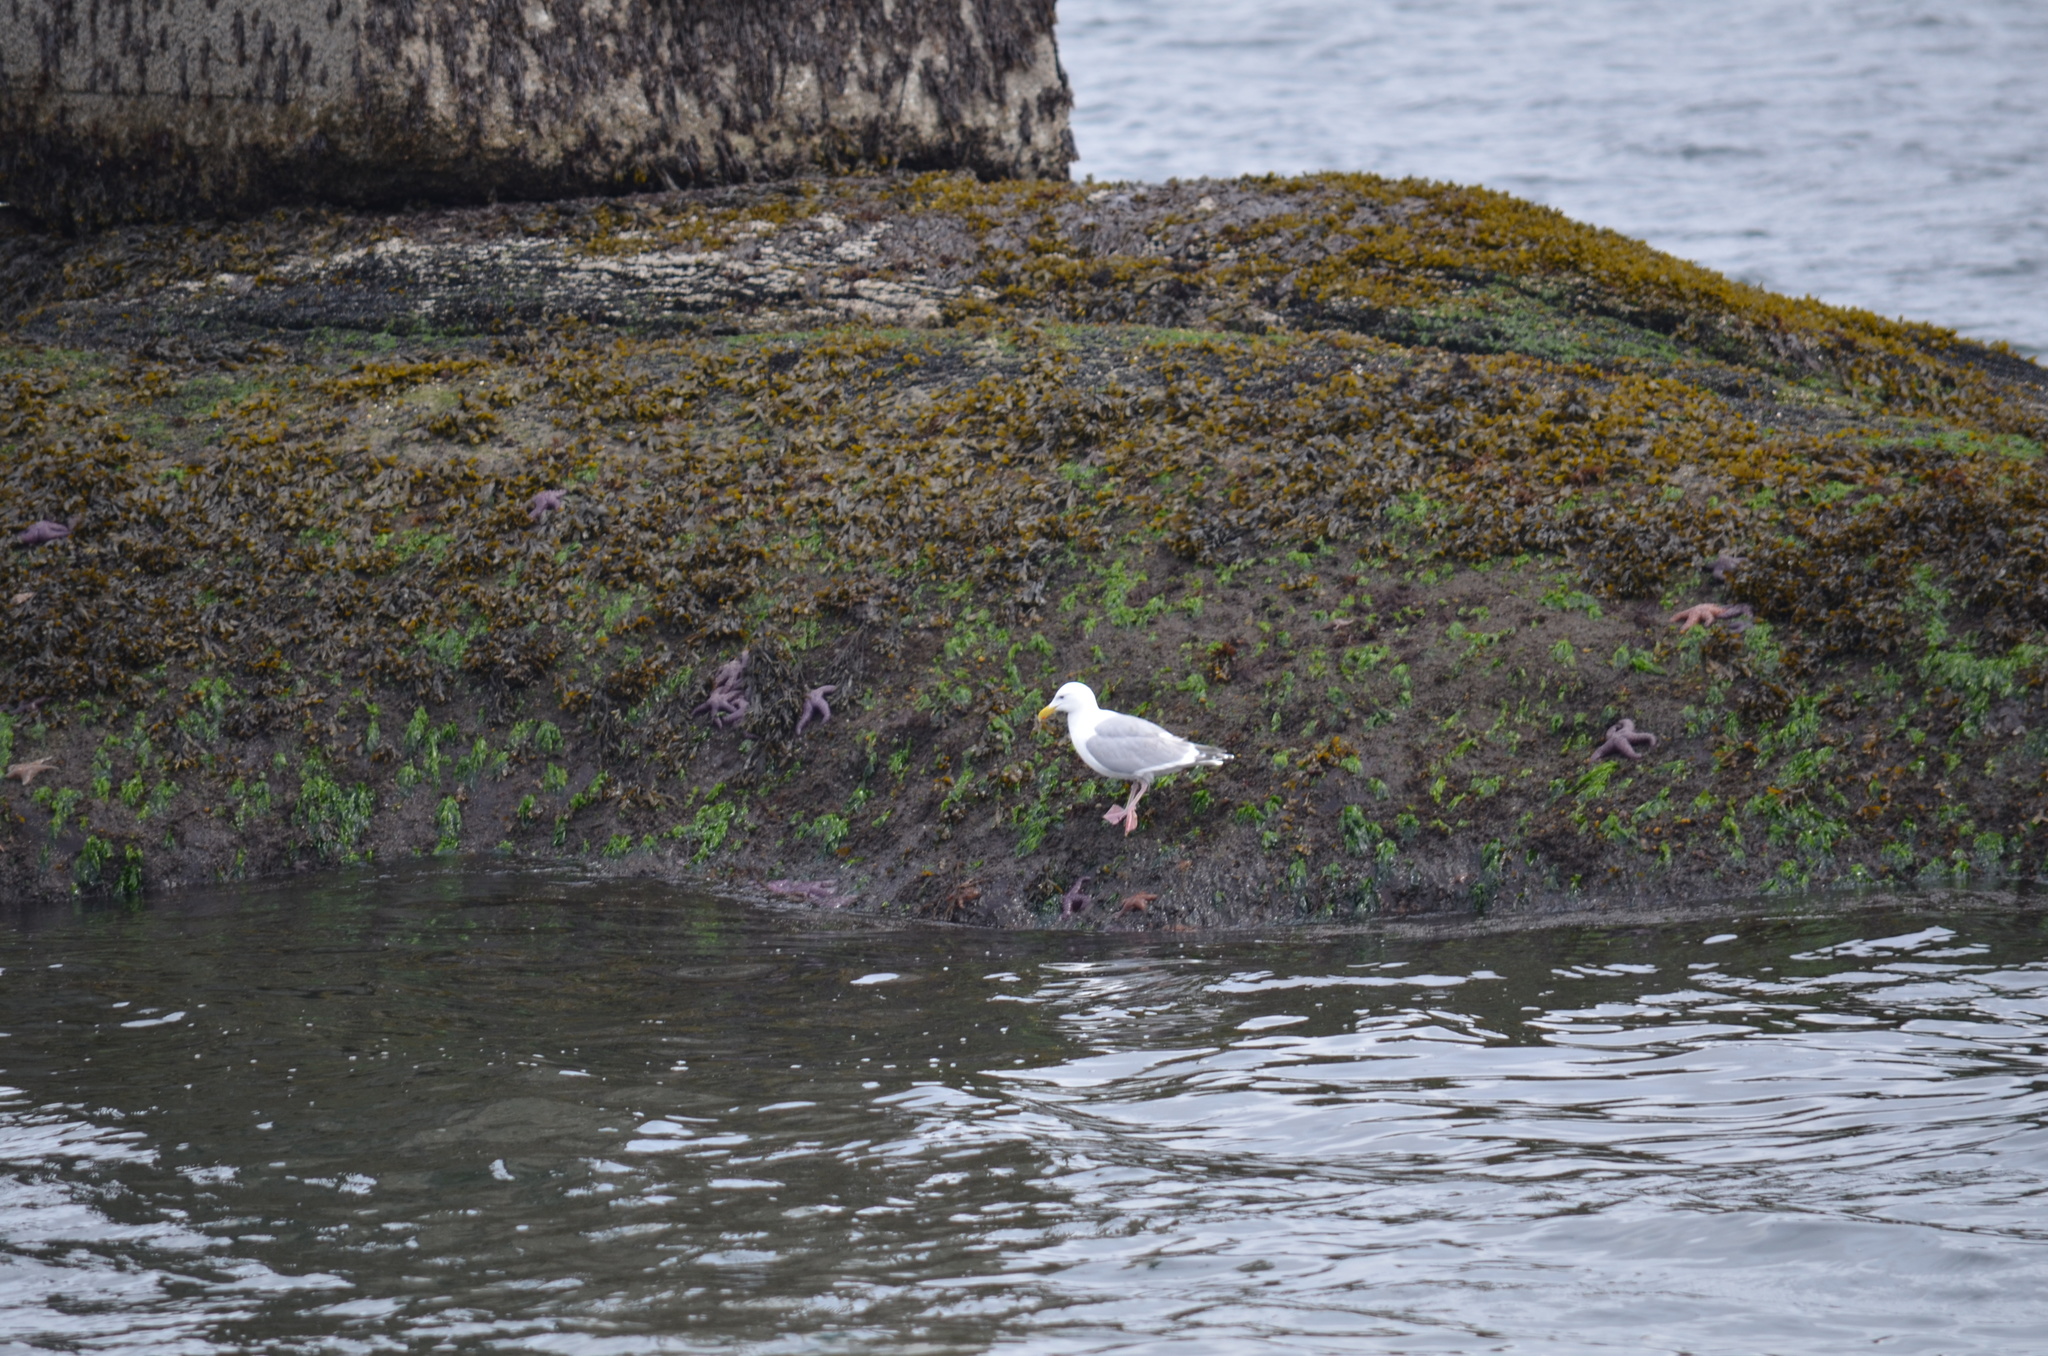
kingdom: Animalia
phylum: Chordata
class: Aves
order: Charadriiformes
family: Laridae
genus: Larus
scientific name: Larus
